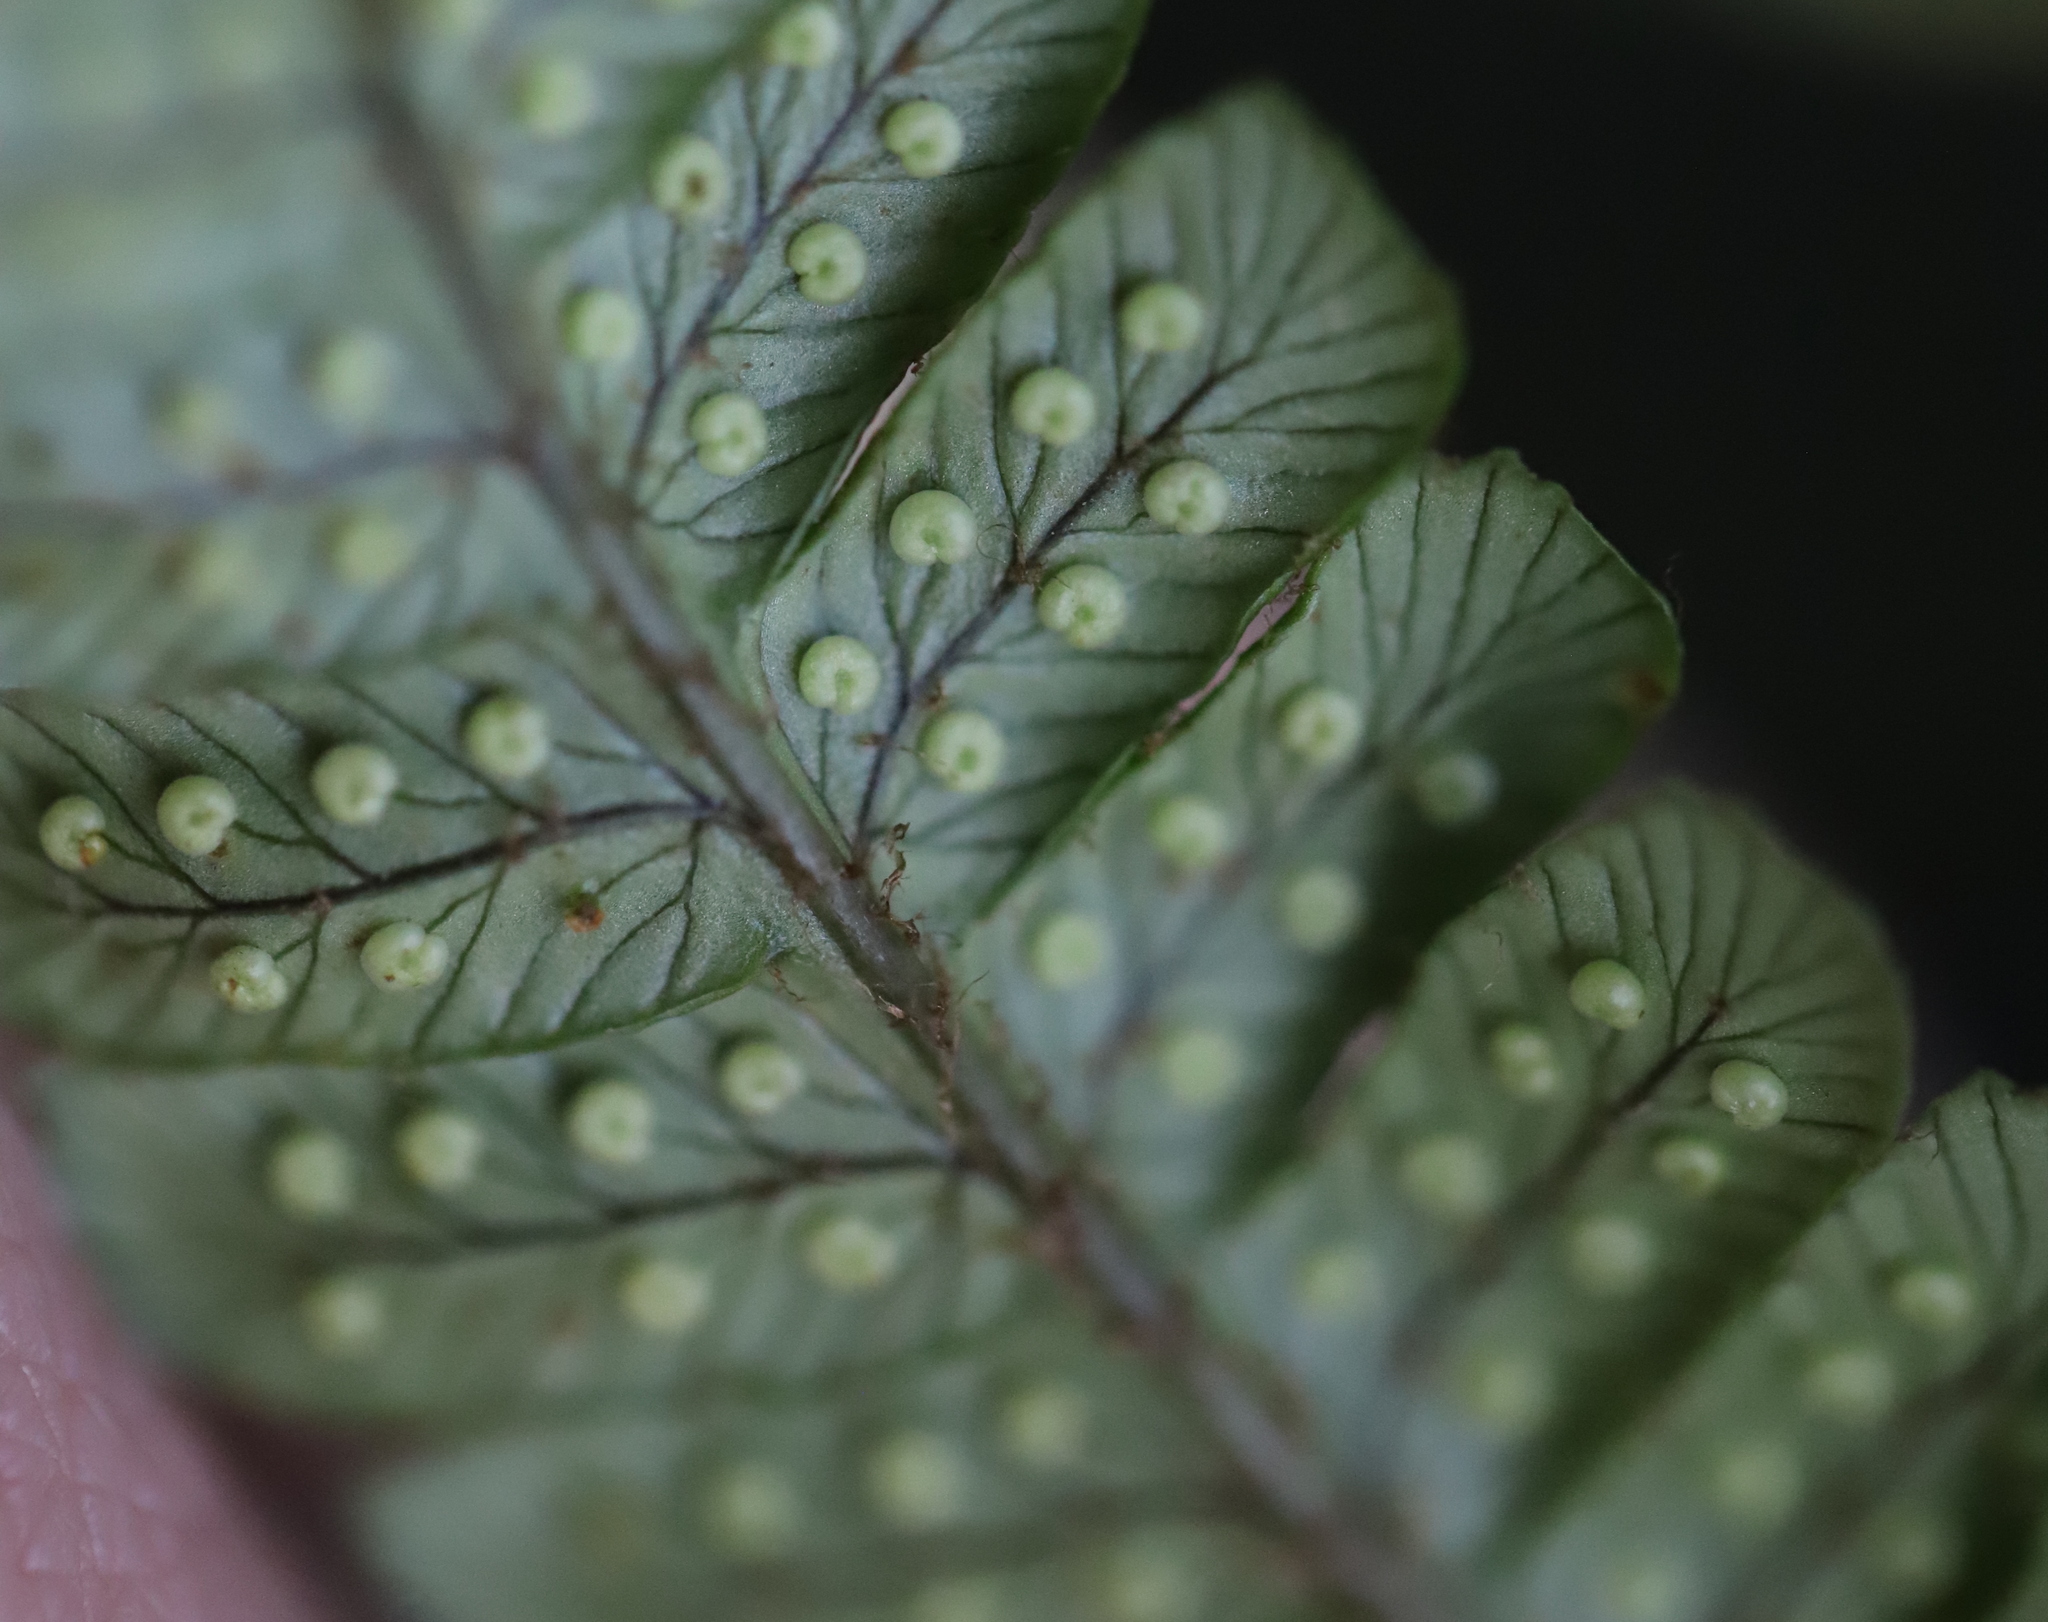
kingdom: Plantae
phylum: Tracheophyta
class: Polypodiopsida
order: Polypodiales
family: Dryopteridaceae
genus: Dryopteris
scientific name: Dryopteris wallichiana
